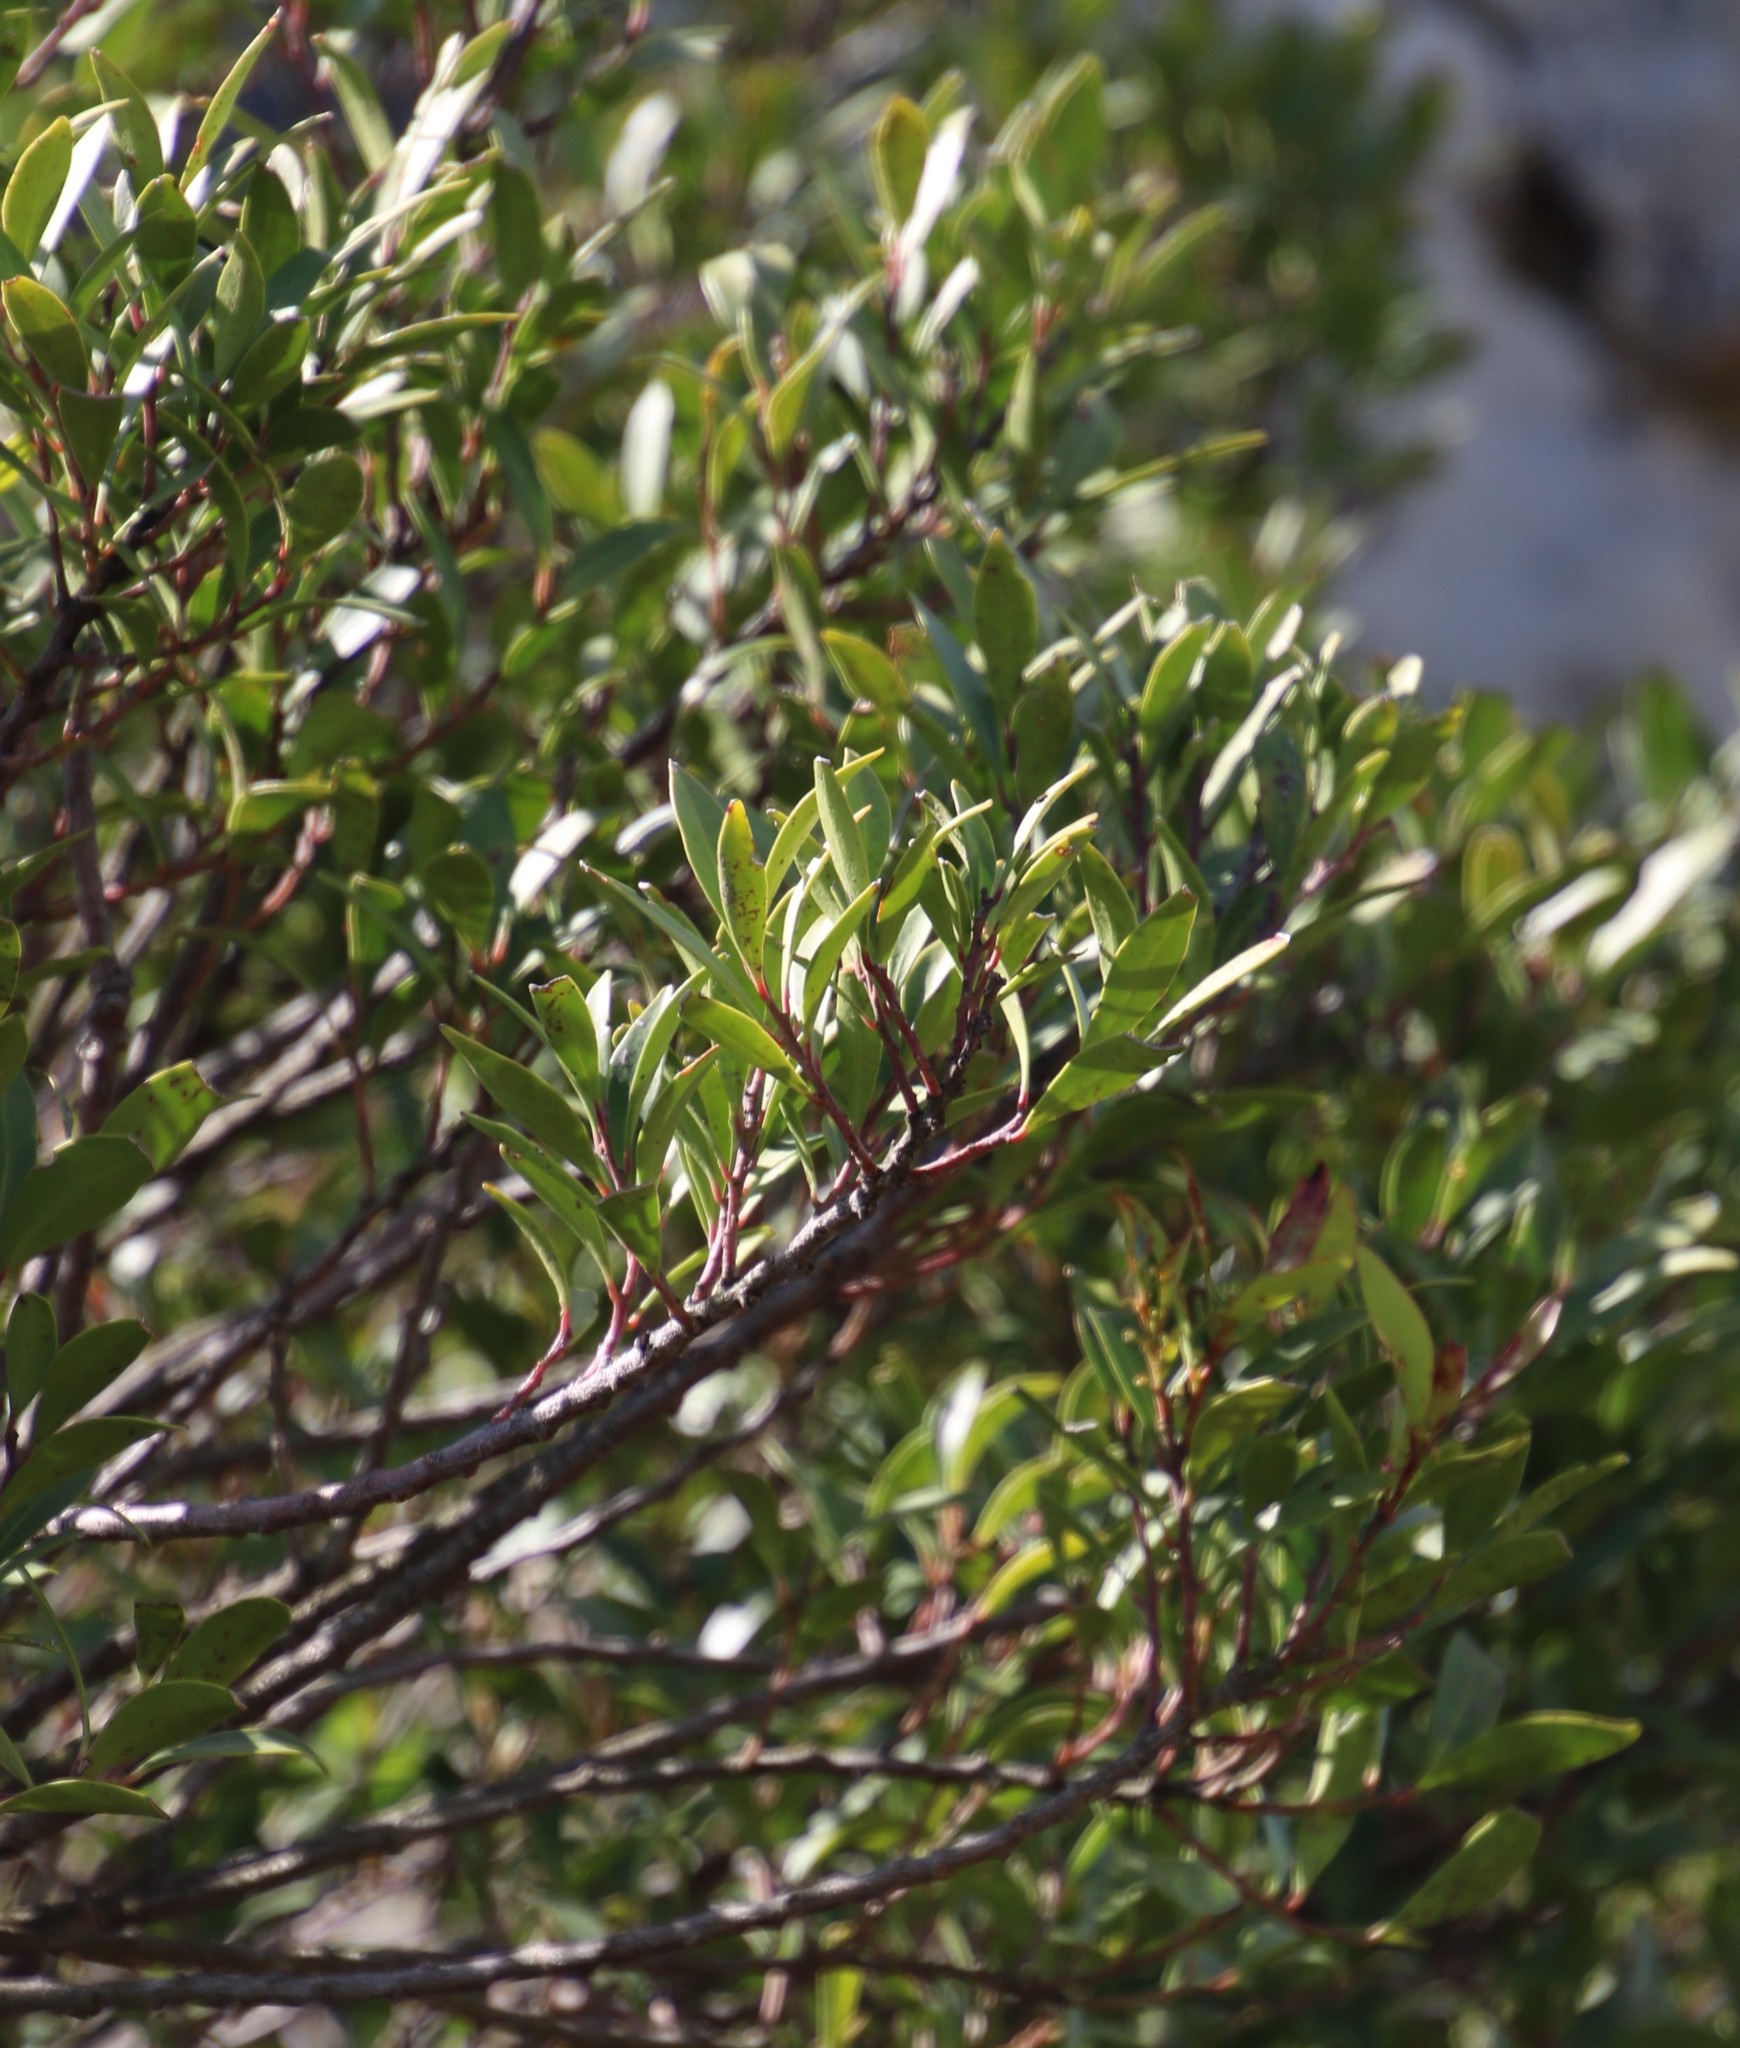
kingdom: Plantae
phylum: Tracheophyta
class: Magnoliopsida
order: Celastrales
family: Celastraceae
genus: Gymnosporia
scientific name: Gymnosporia laurina
